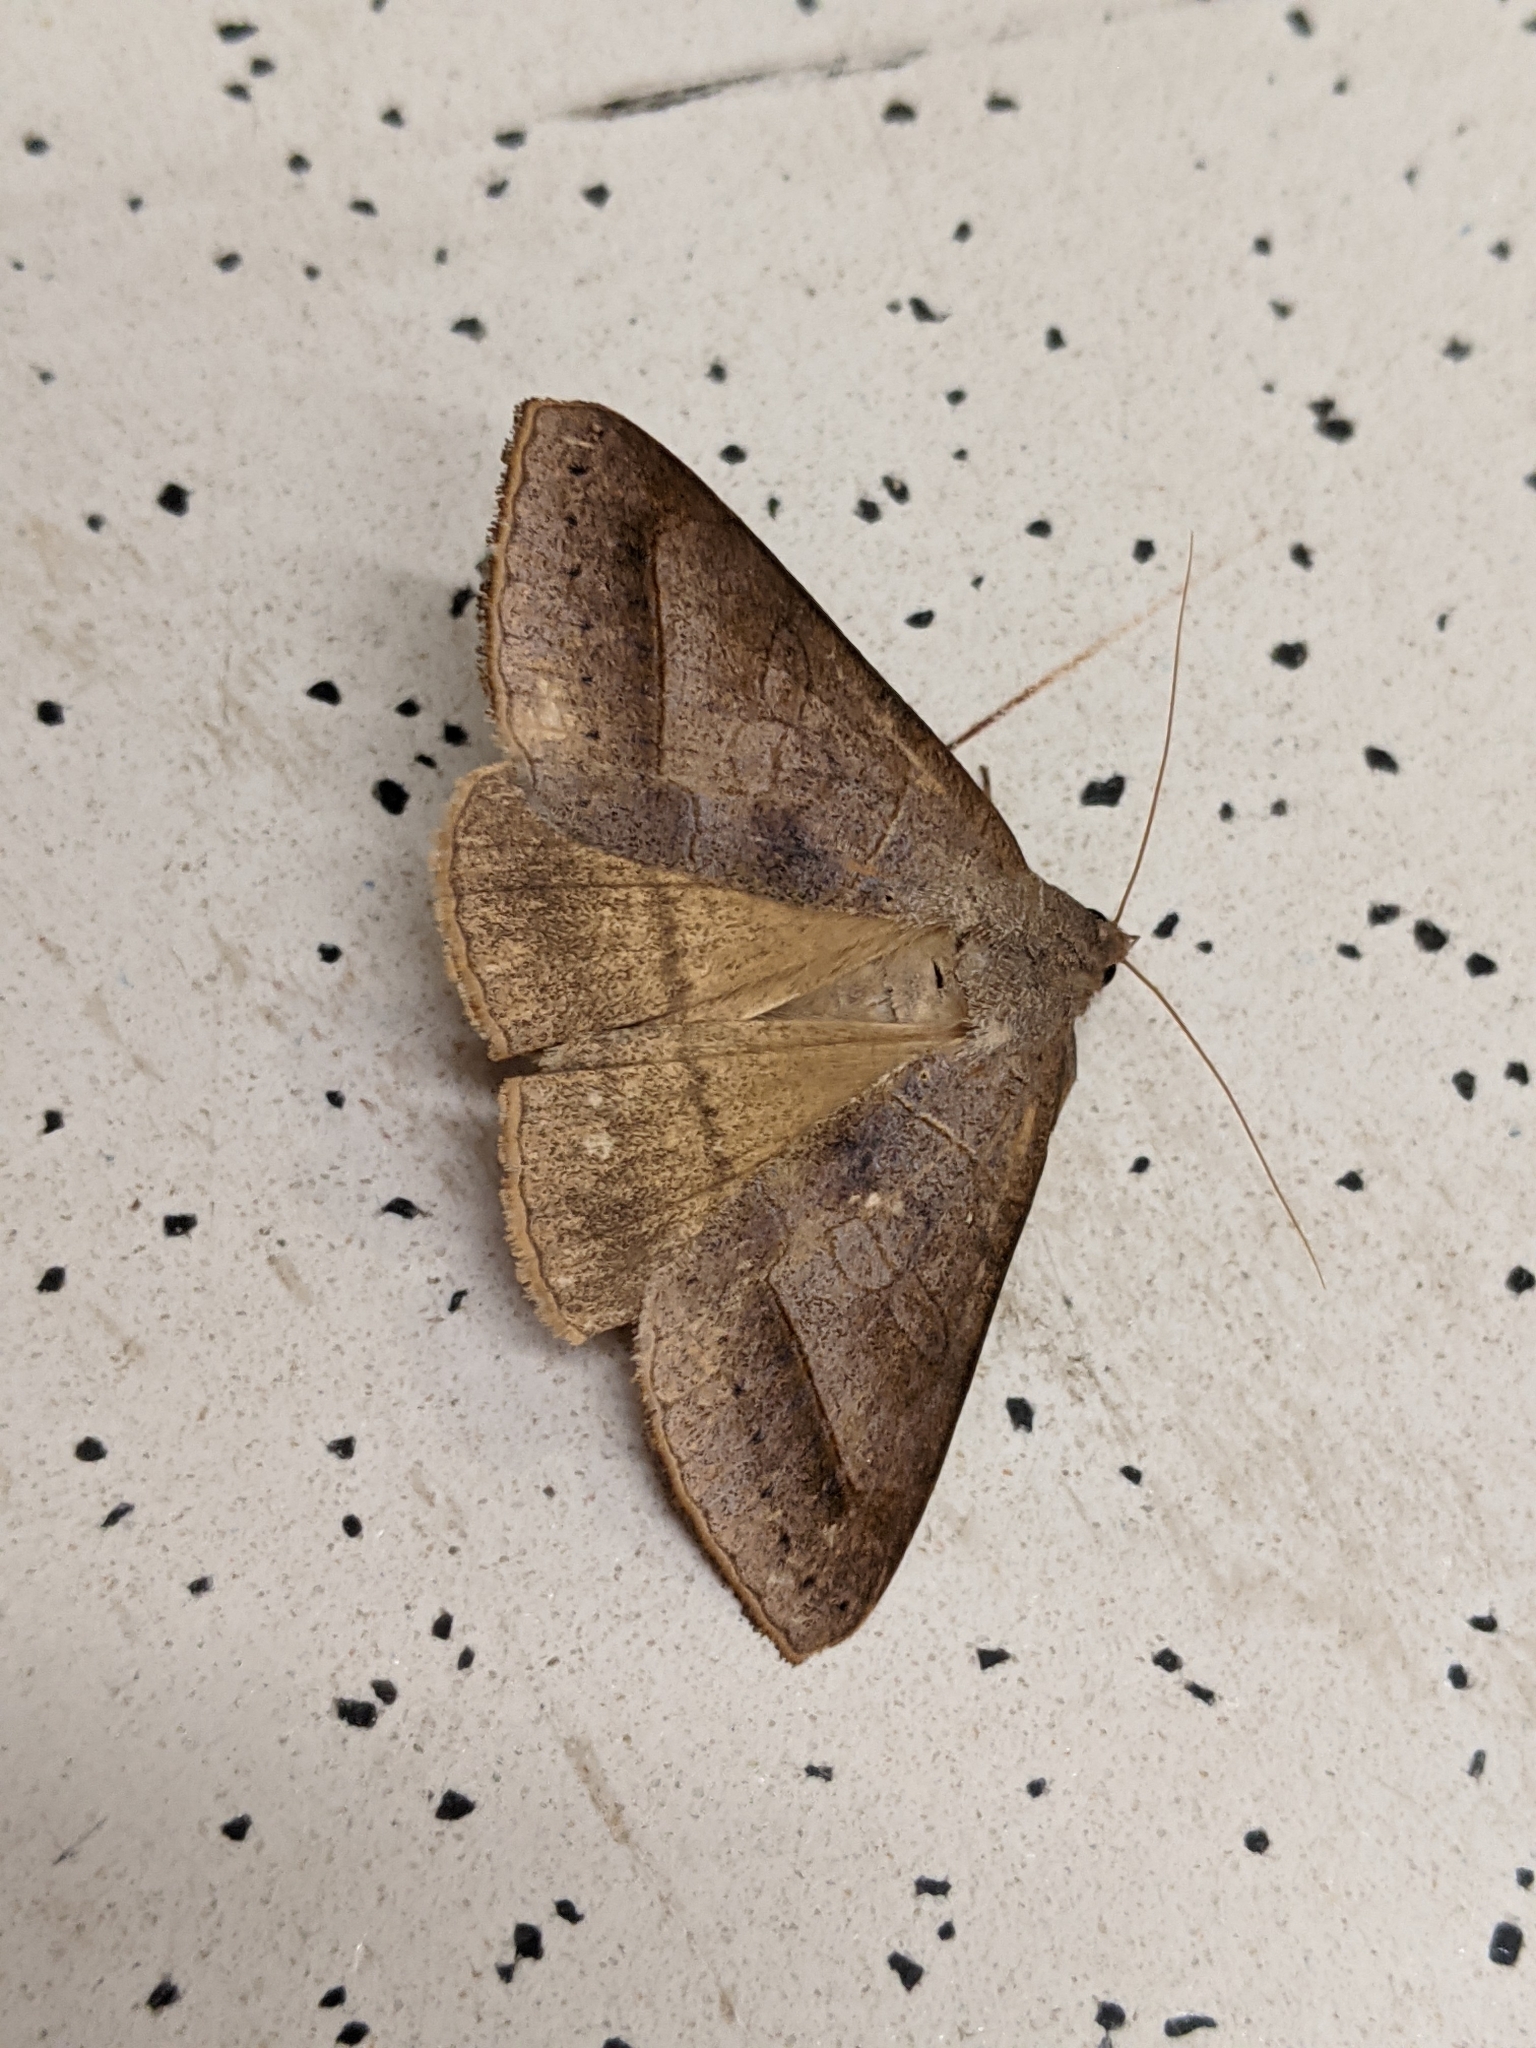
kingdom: Animalia
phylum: Arthropoda
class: Insecta
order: Lepidoptera
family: Erebidae
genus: Mocis
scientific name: Mocis marcida
